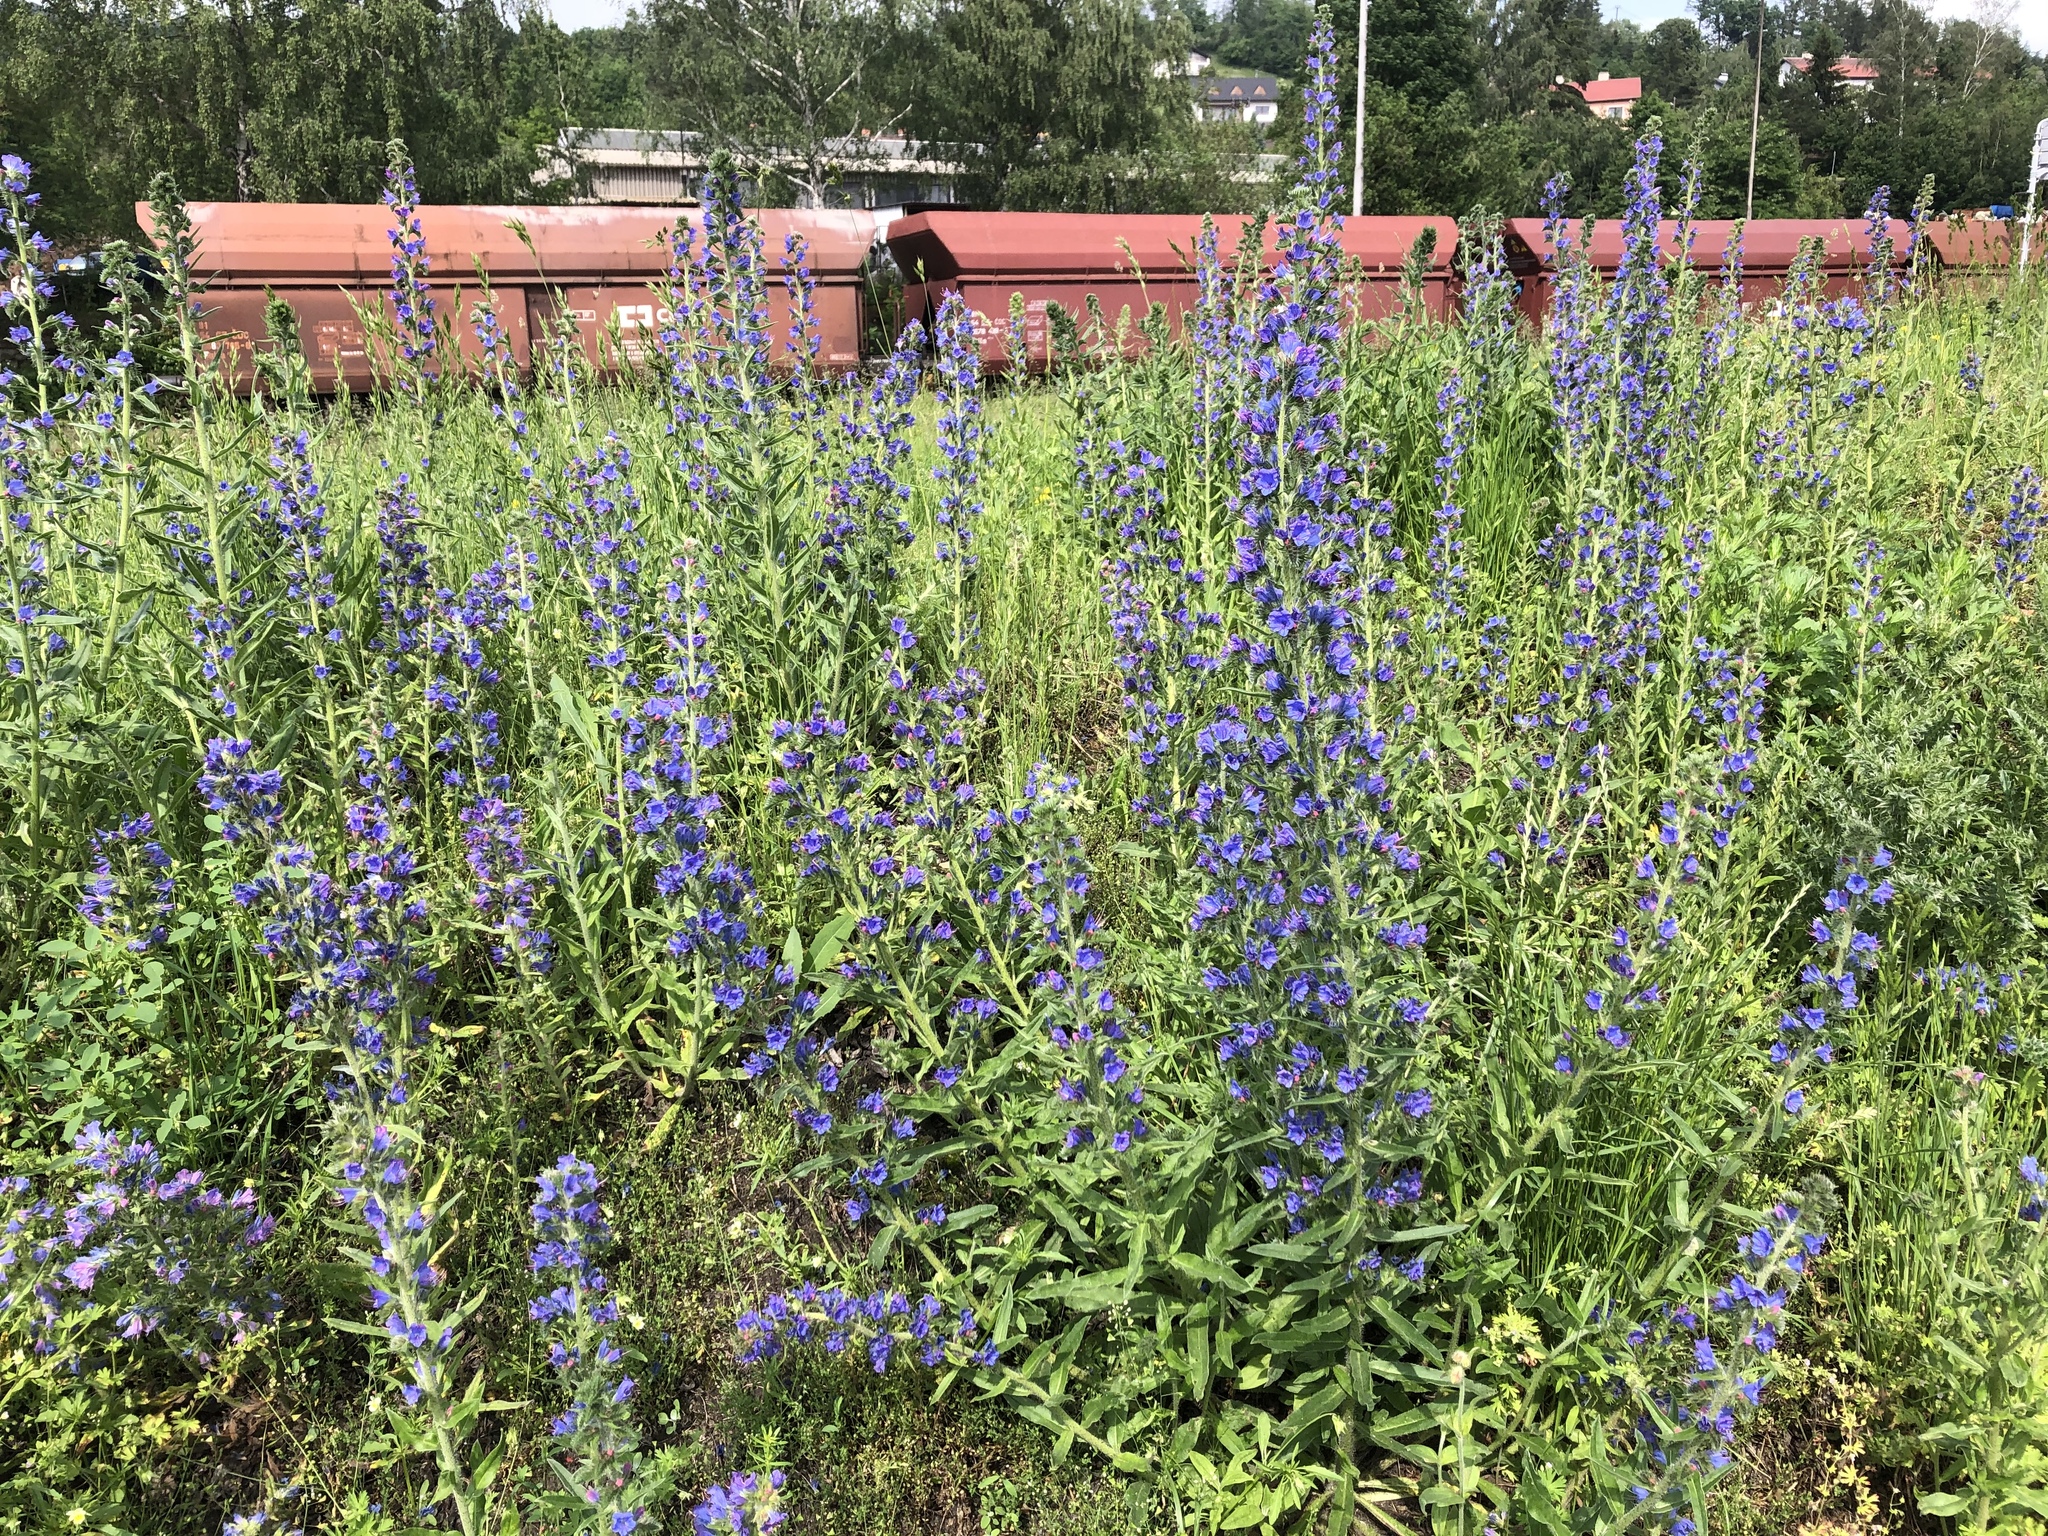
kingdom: Plantae
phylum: Tracheophyta
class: Magnoliopsida
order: Boraginales
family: Boraginaceae
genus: Echium
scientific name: Echium vulgare
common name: Common viper's bugloss
